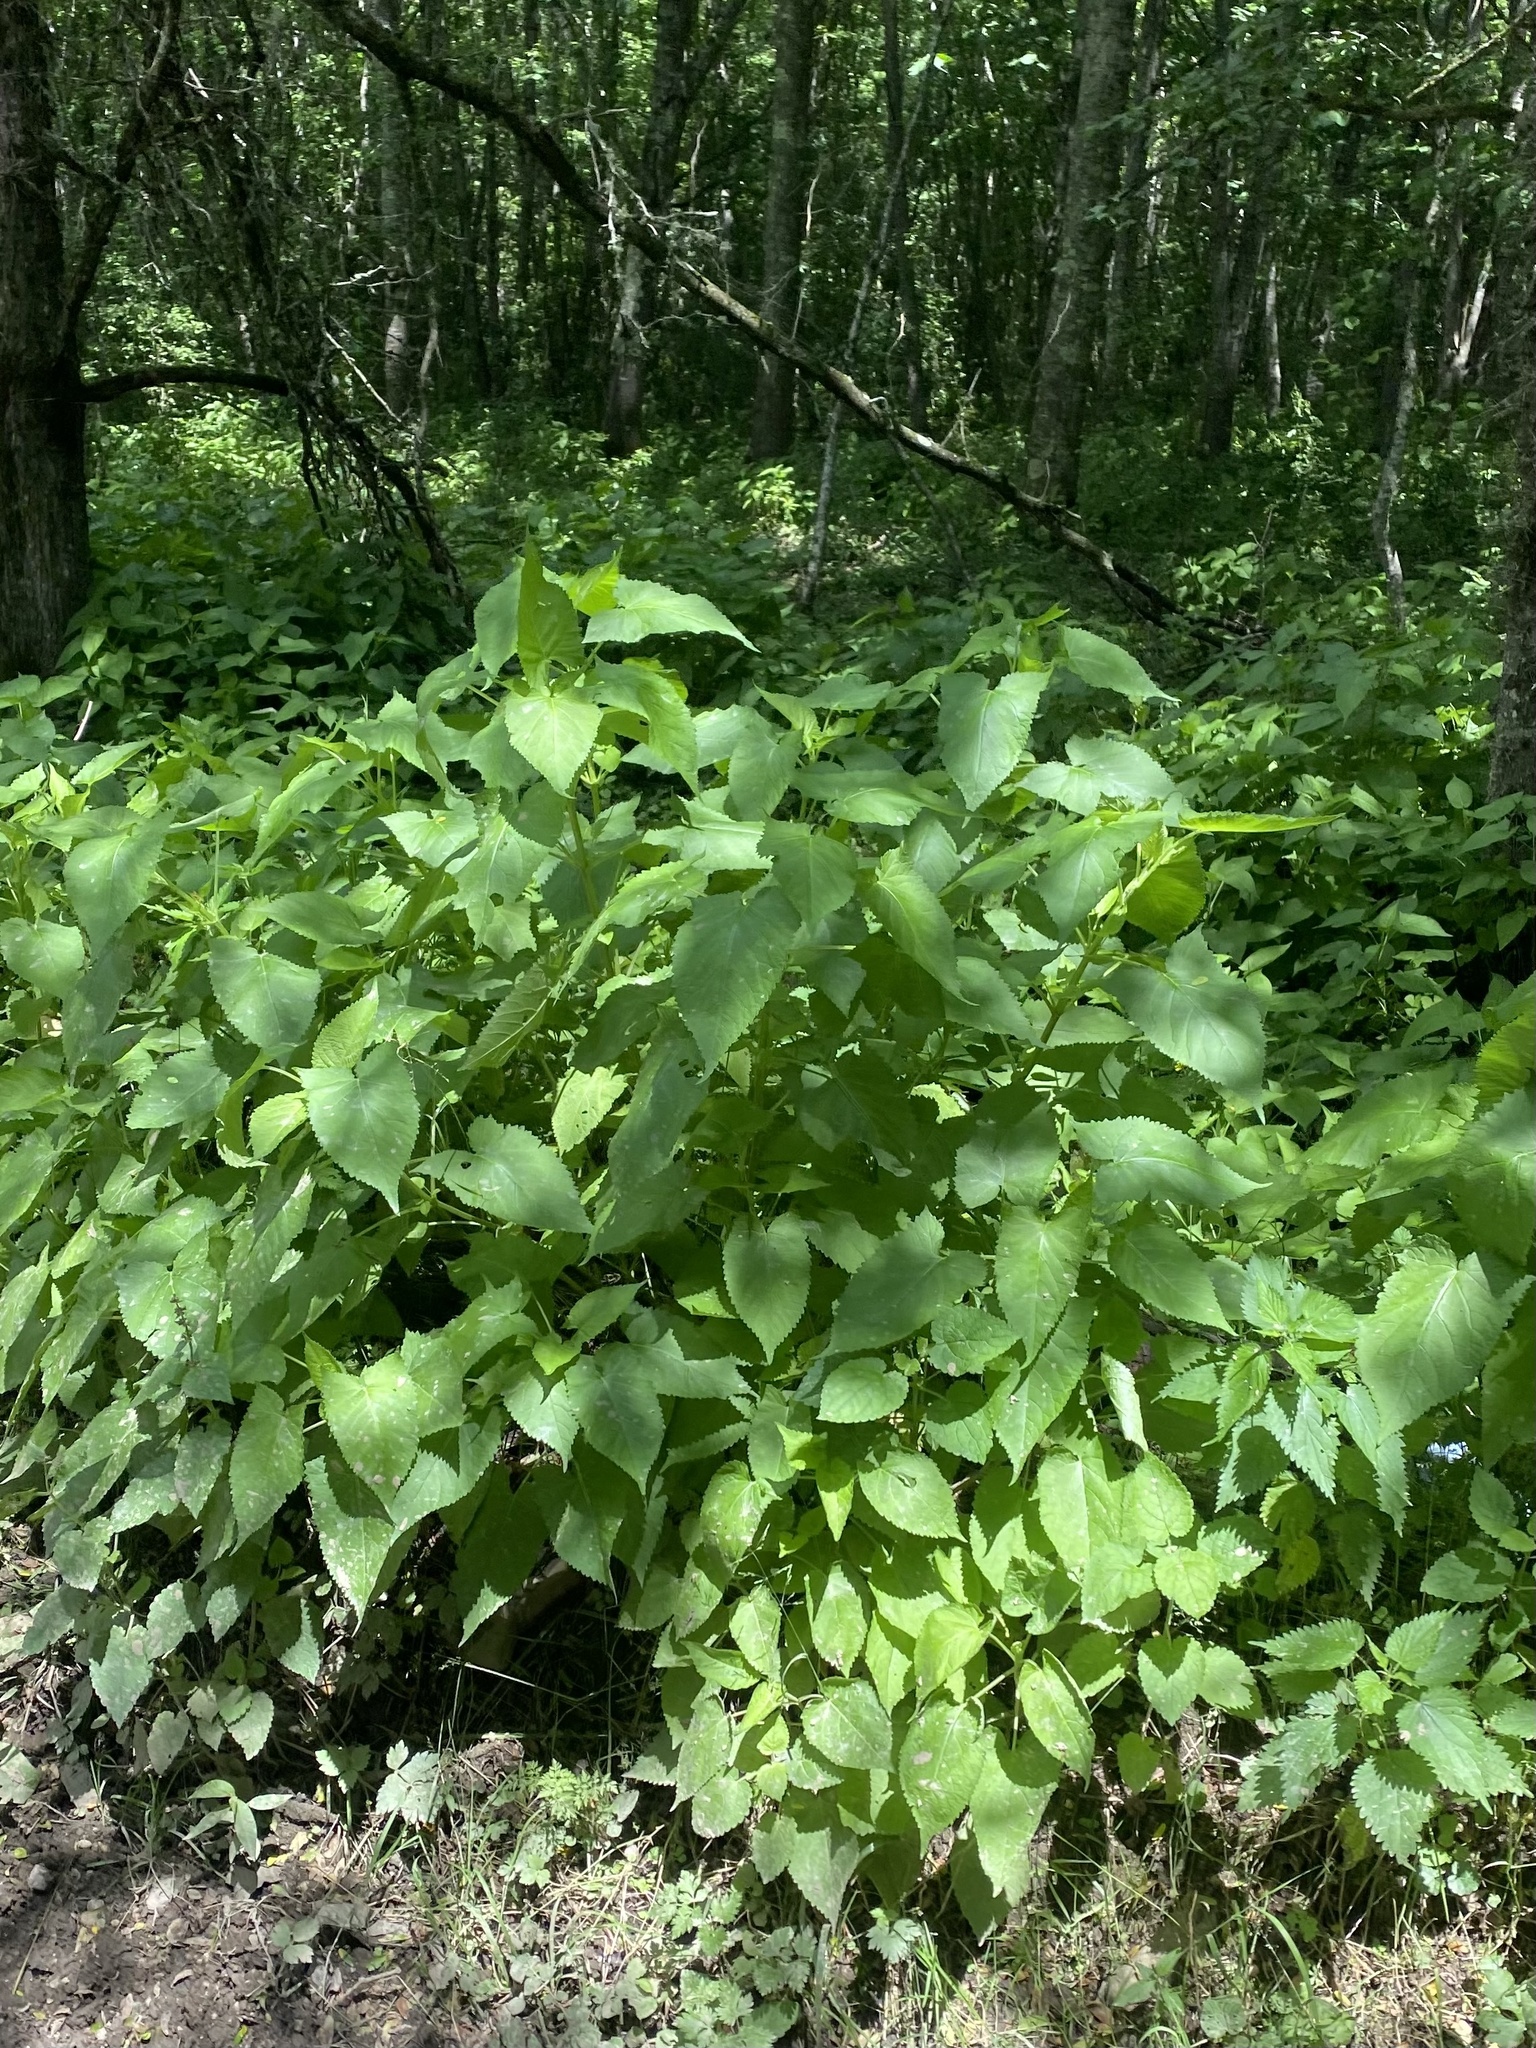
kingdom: Plantae
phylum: Tracheophyta
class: Magnoliopsida
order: Lamiales
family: Lamiaceae
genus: Salvia
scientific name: Salvia glutinosa
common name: Sticky clary
